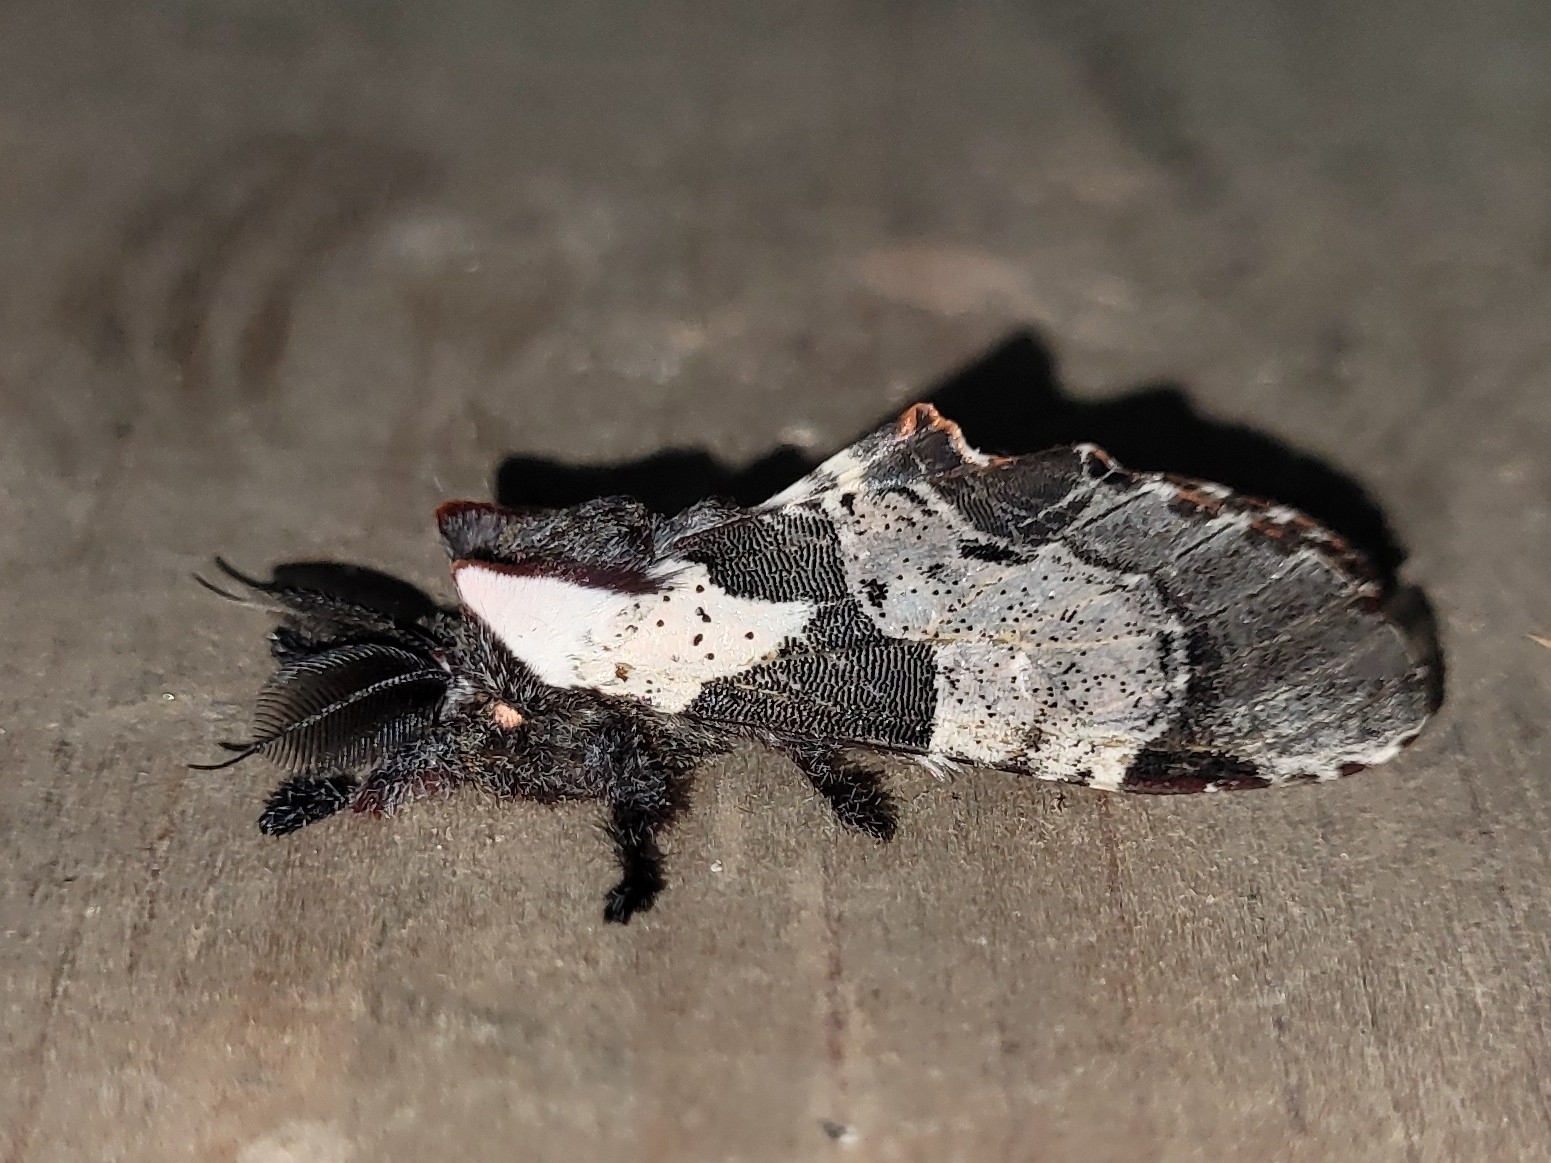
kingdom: Animalia
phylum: Arthropoda
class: Insecta
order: Lepidoptera
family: Notodontidae
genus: Harpyia
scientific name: Harpyia longipennis
